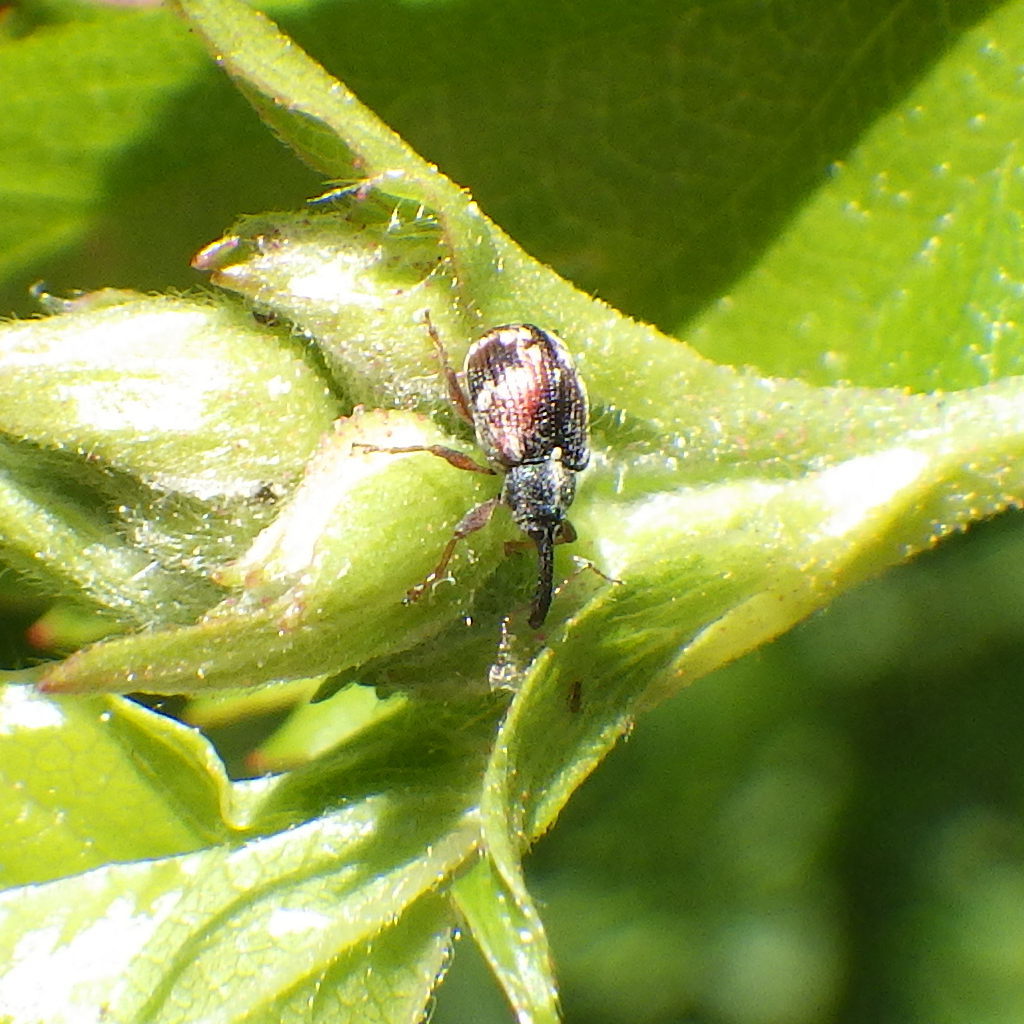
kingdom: Animalia
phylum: Arthropoda
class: Insecta
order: Coleoptera
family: Curculionidae
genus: Anthonomus
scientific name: Anthonomus signatus
